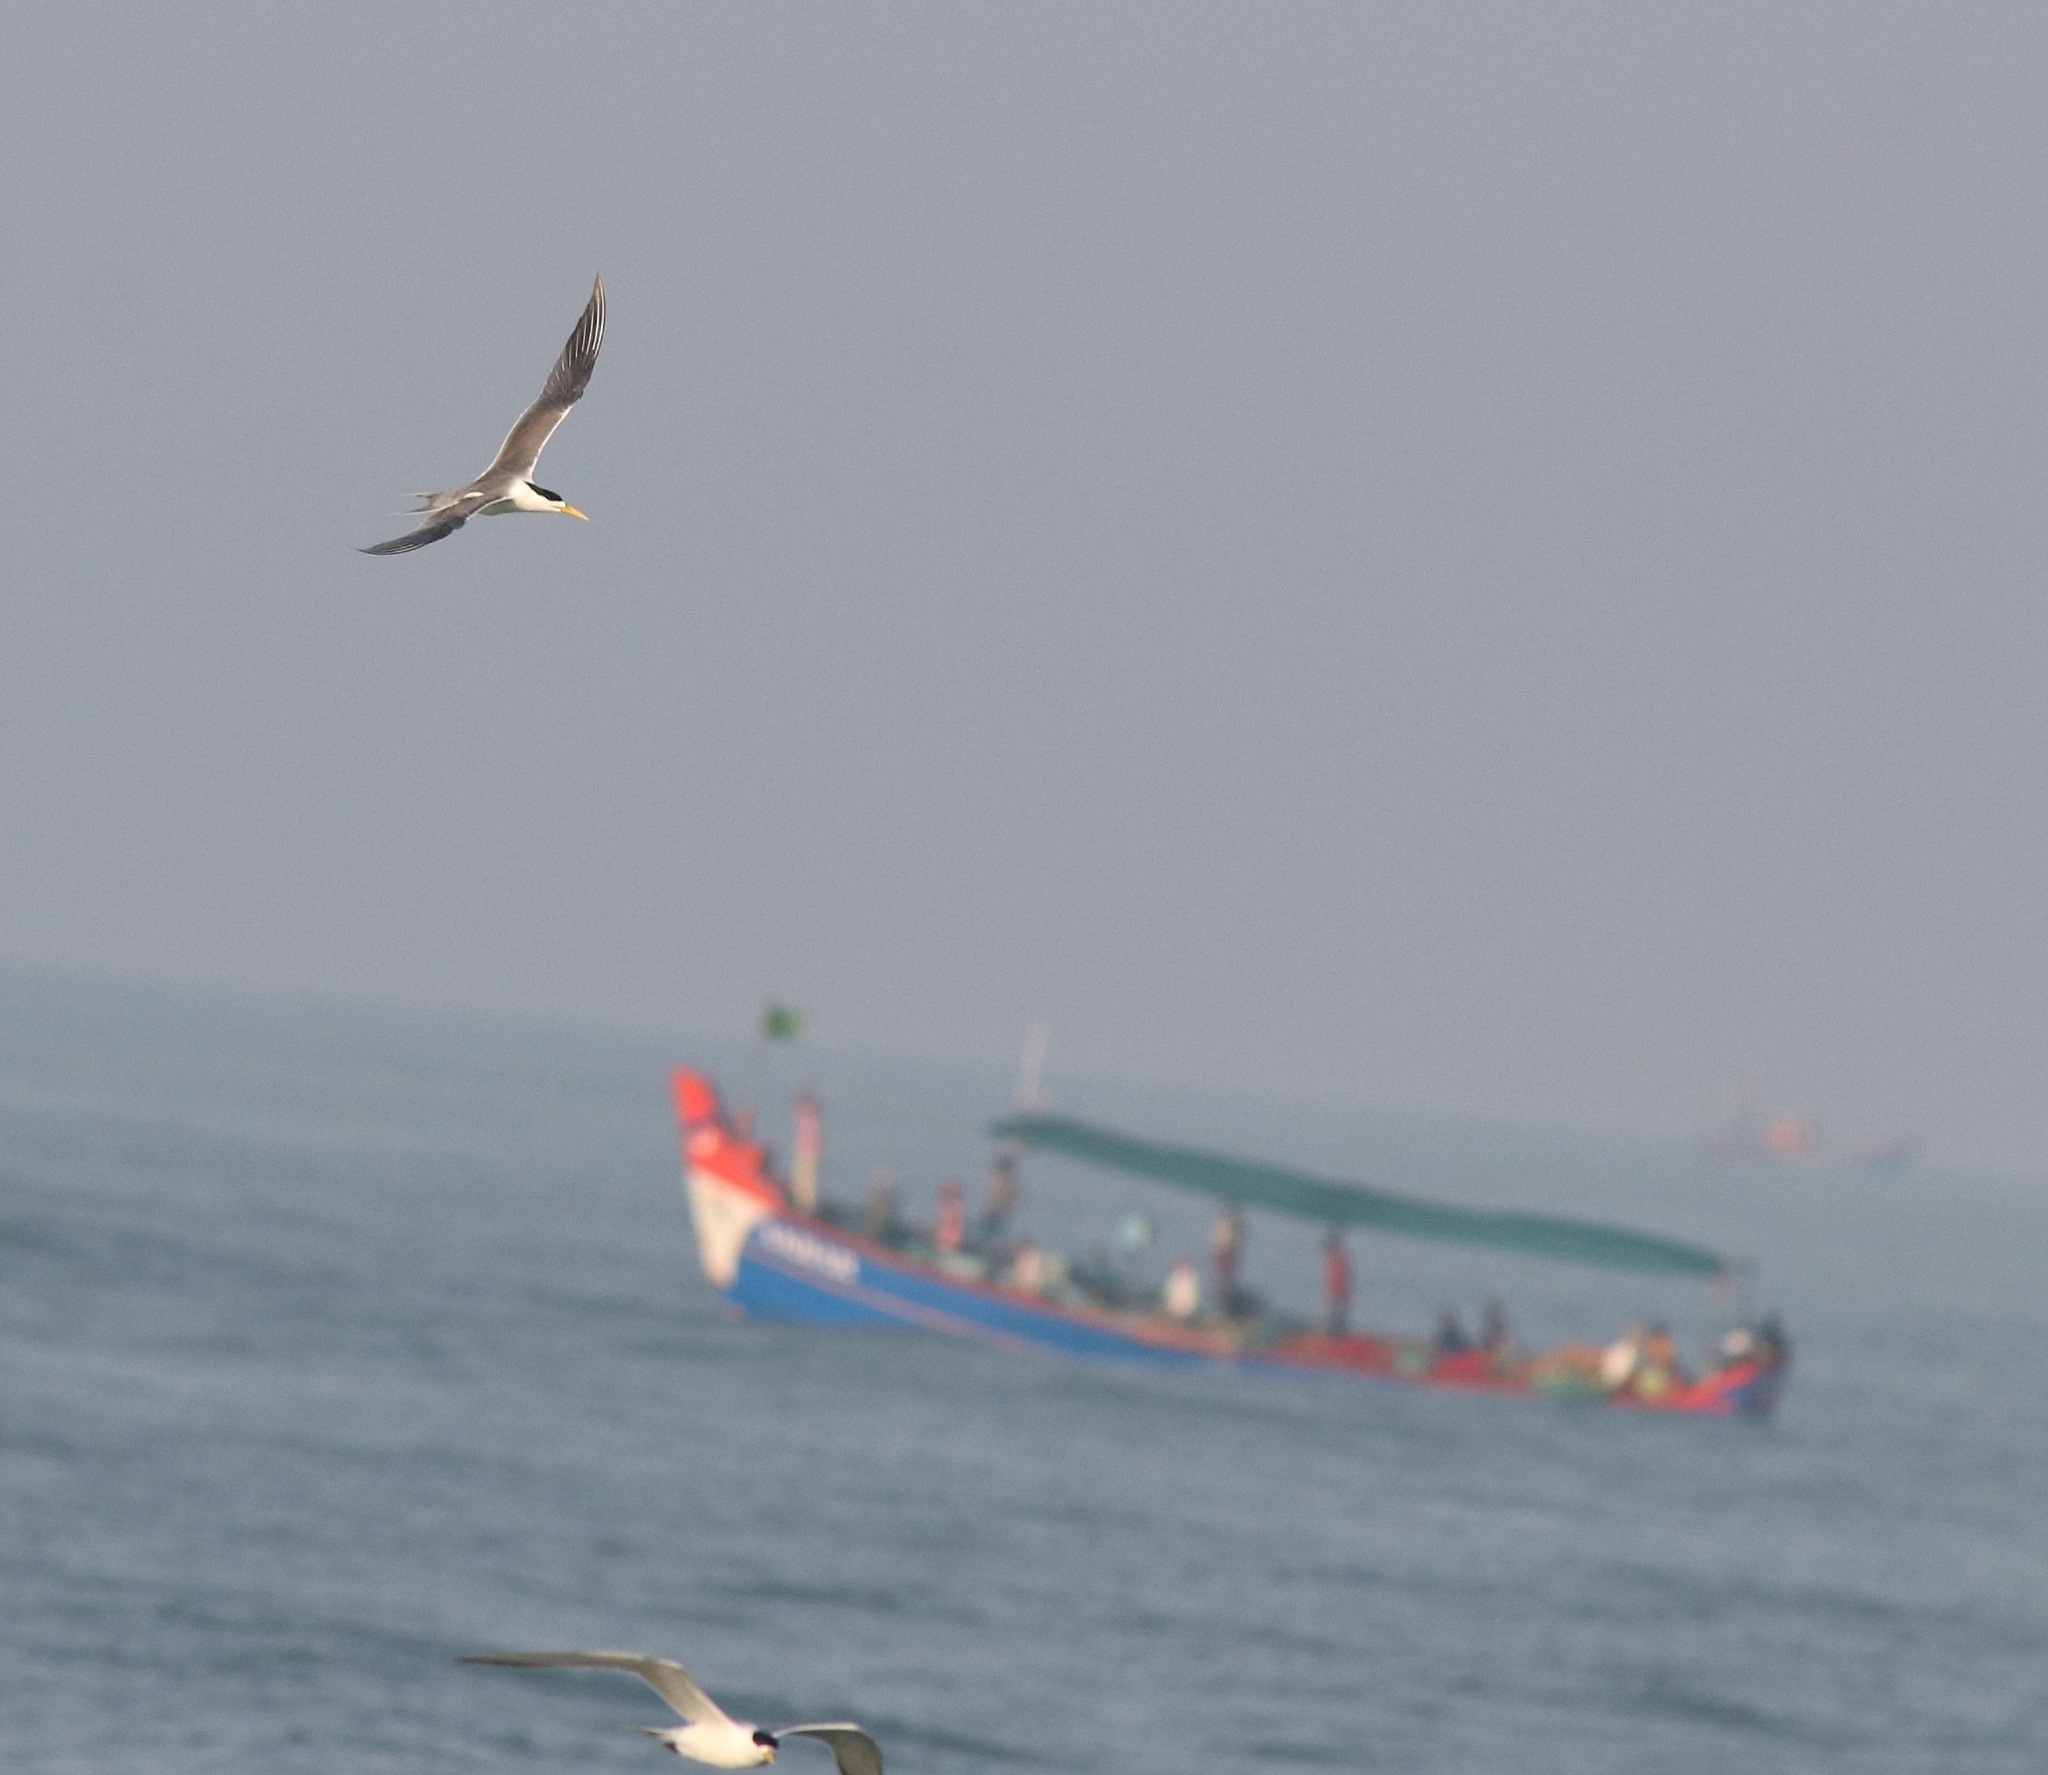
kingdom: Animalia
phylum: Chordata
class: Aves
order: Charadriiformes
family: Laridae
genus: Thalasseus
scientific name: Thalasseus bergii
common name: Greater crested tern
